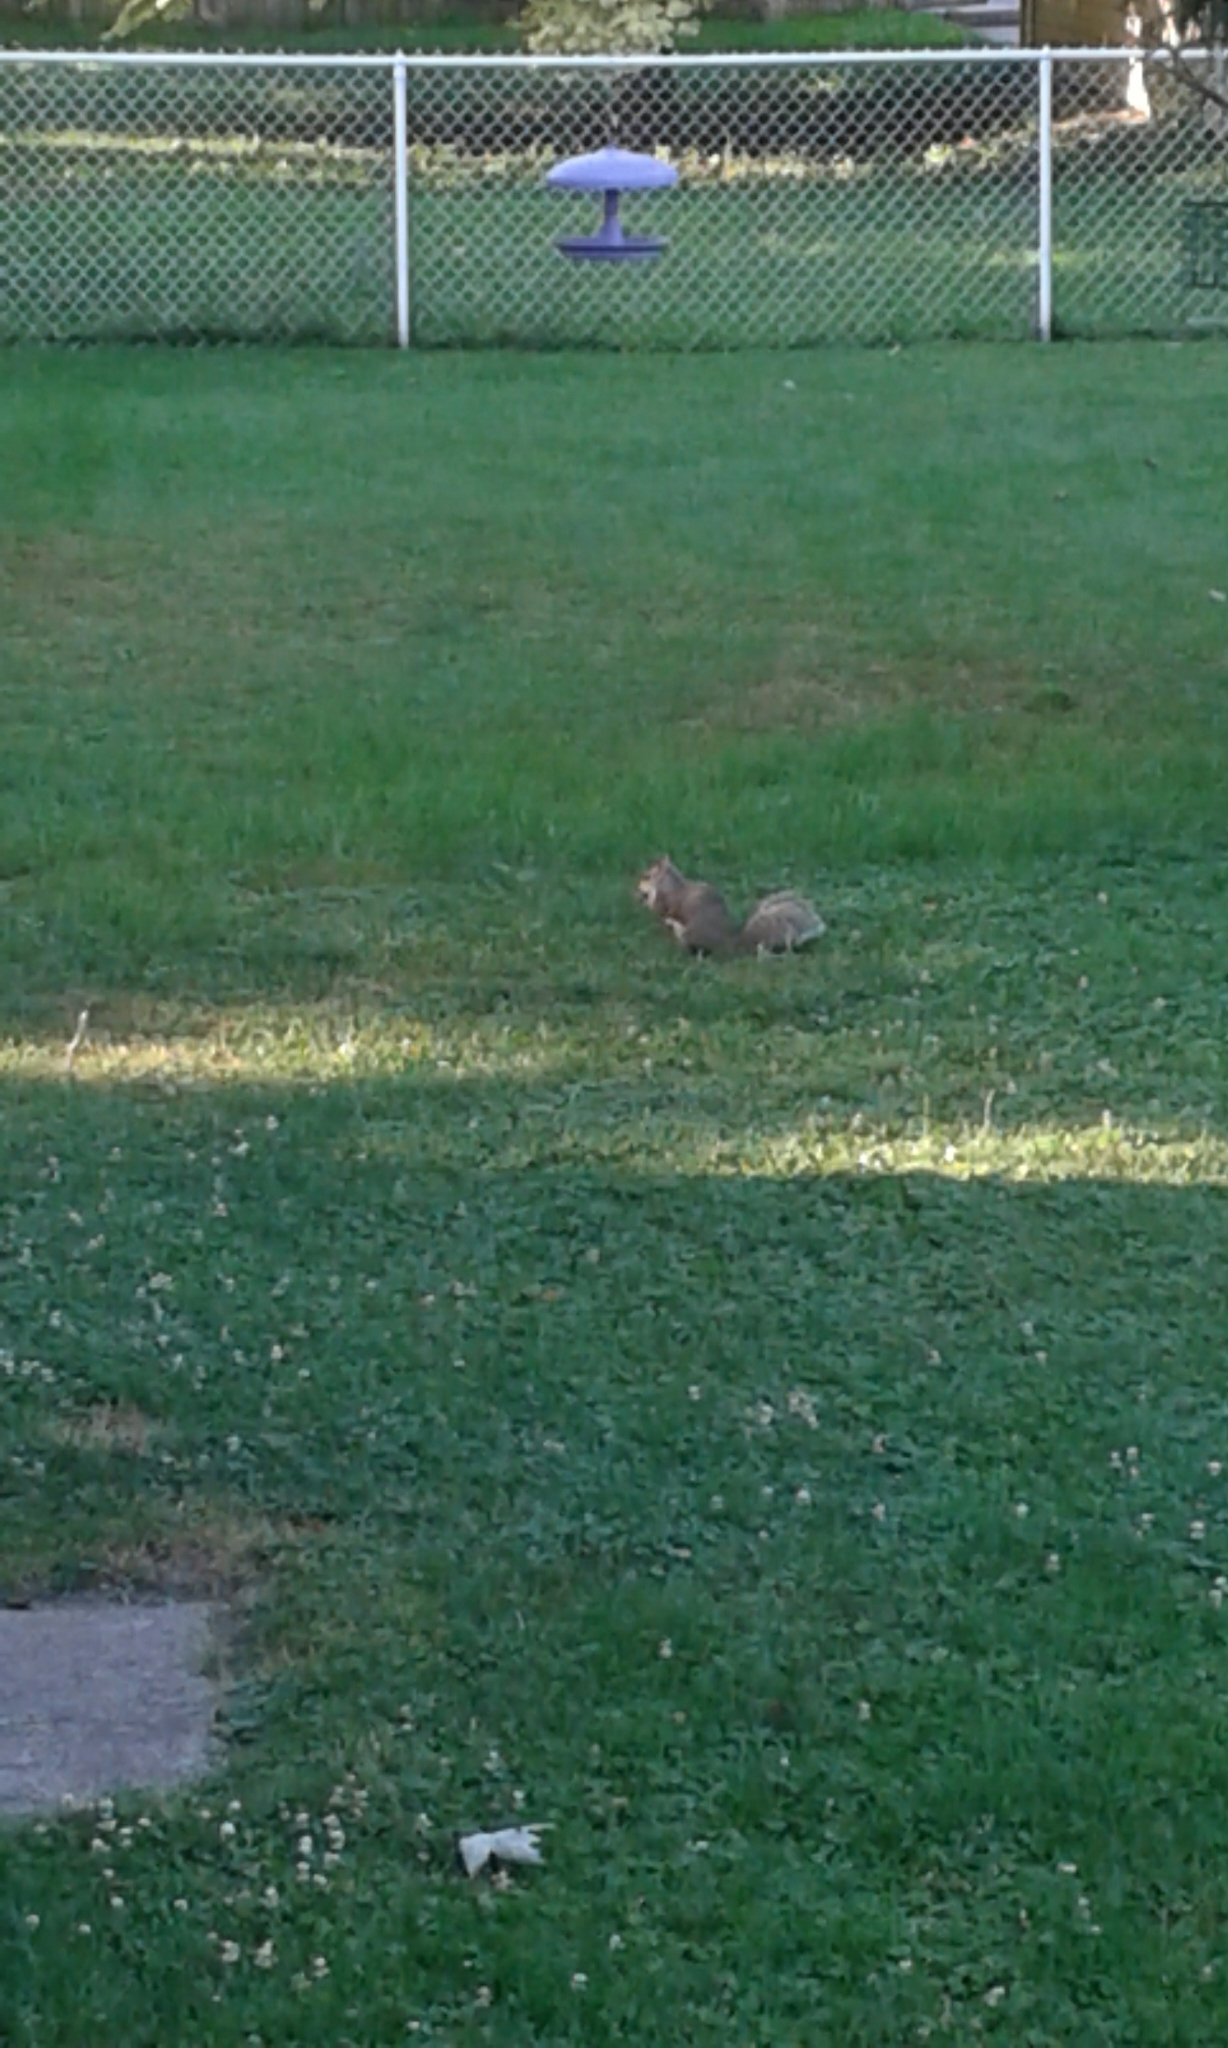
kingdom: Animalia
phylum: Chordata
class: Mammalia
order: Rodentia
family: Sciuridae
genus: Sciurus
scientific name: Sciurus carolinensis
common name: Eastern gray squirrel
